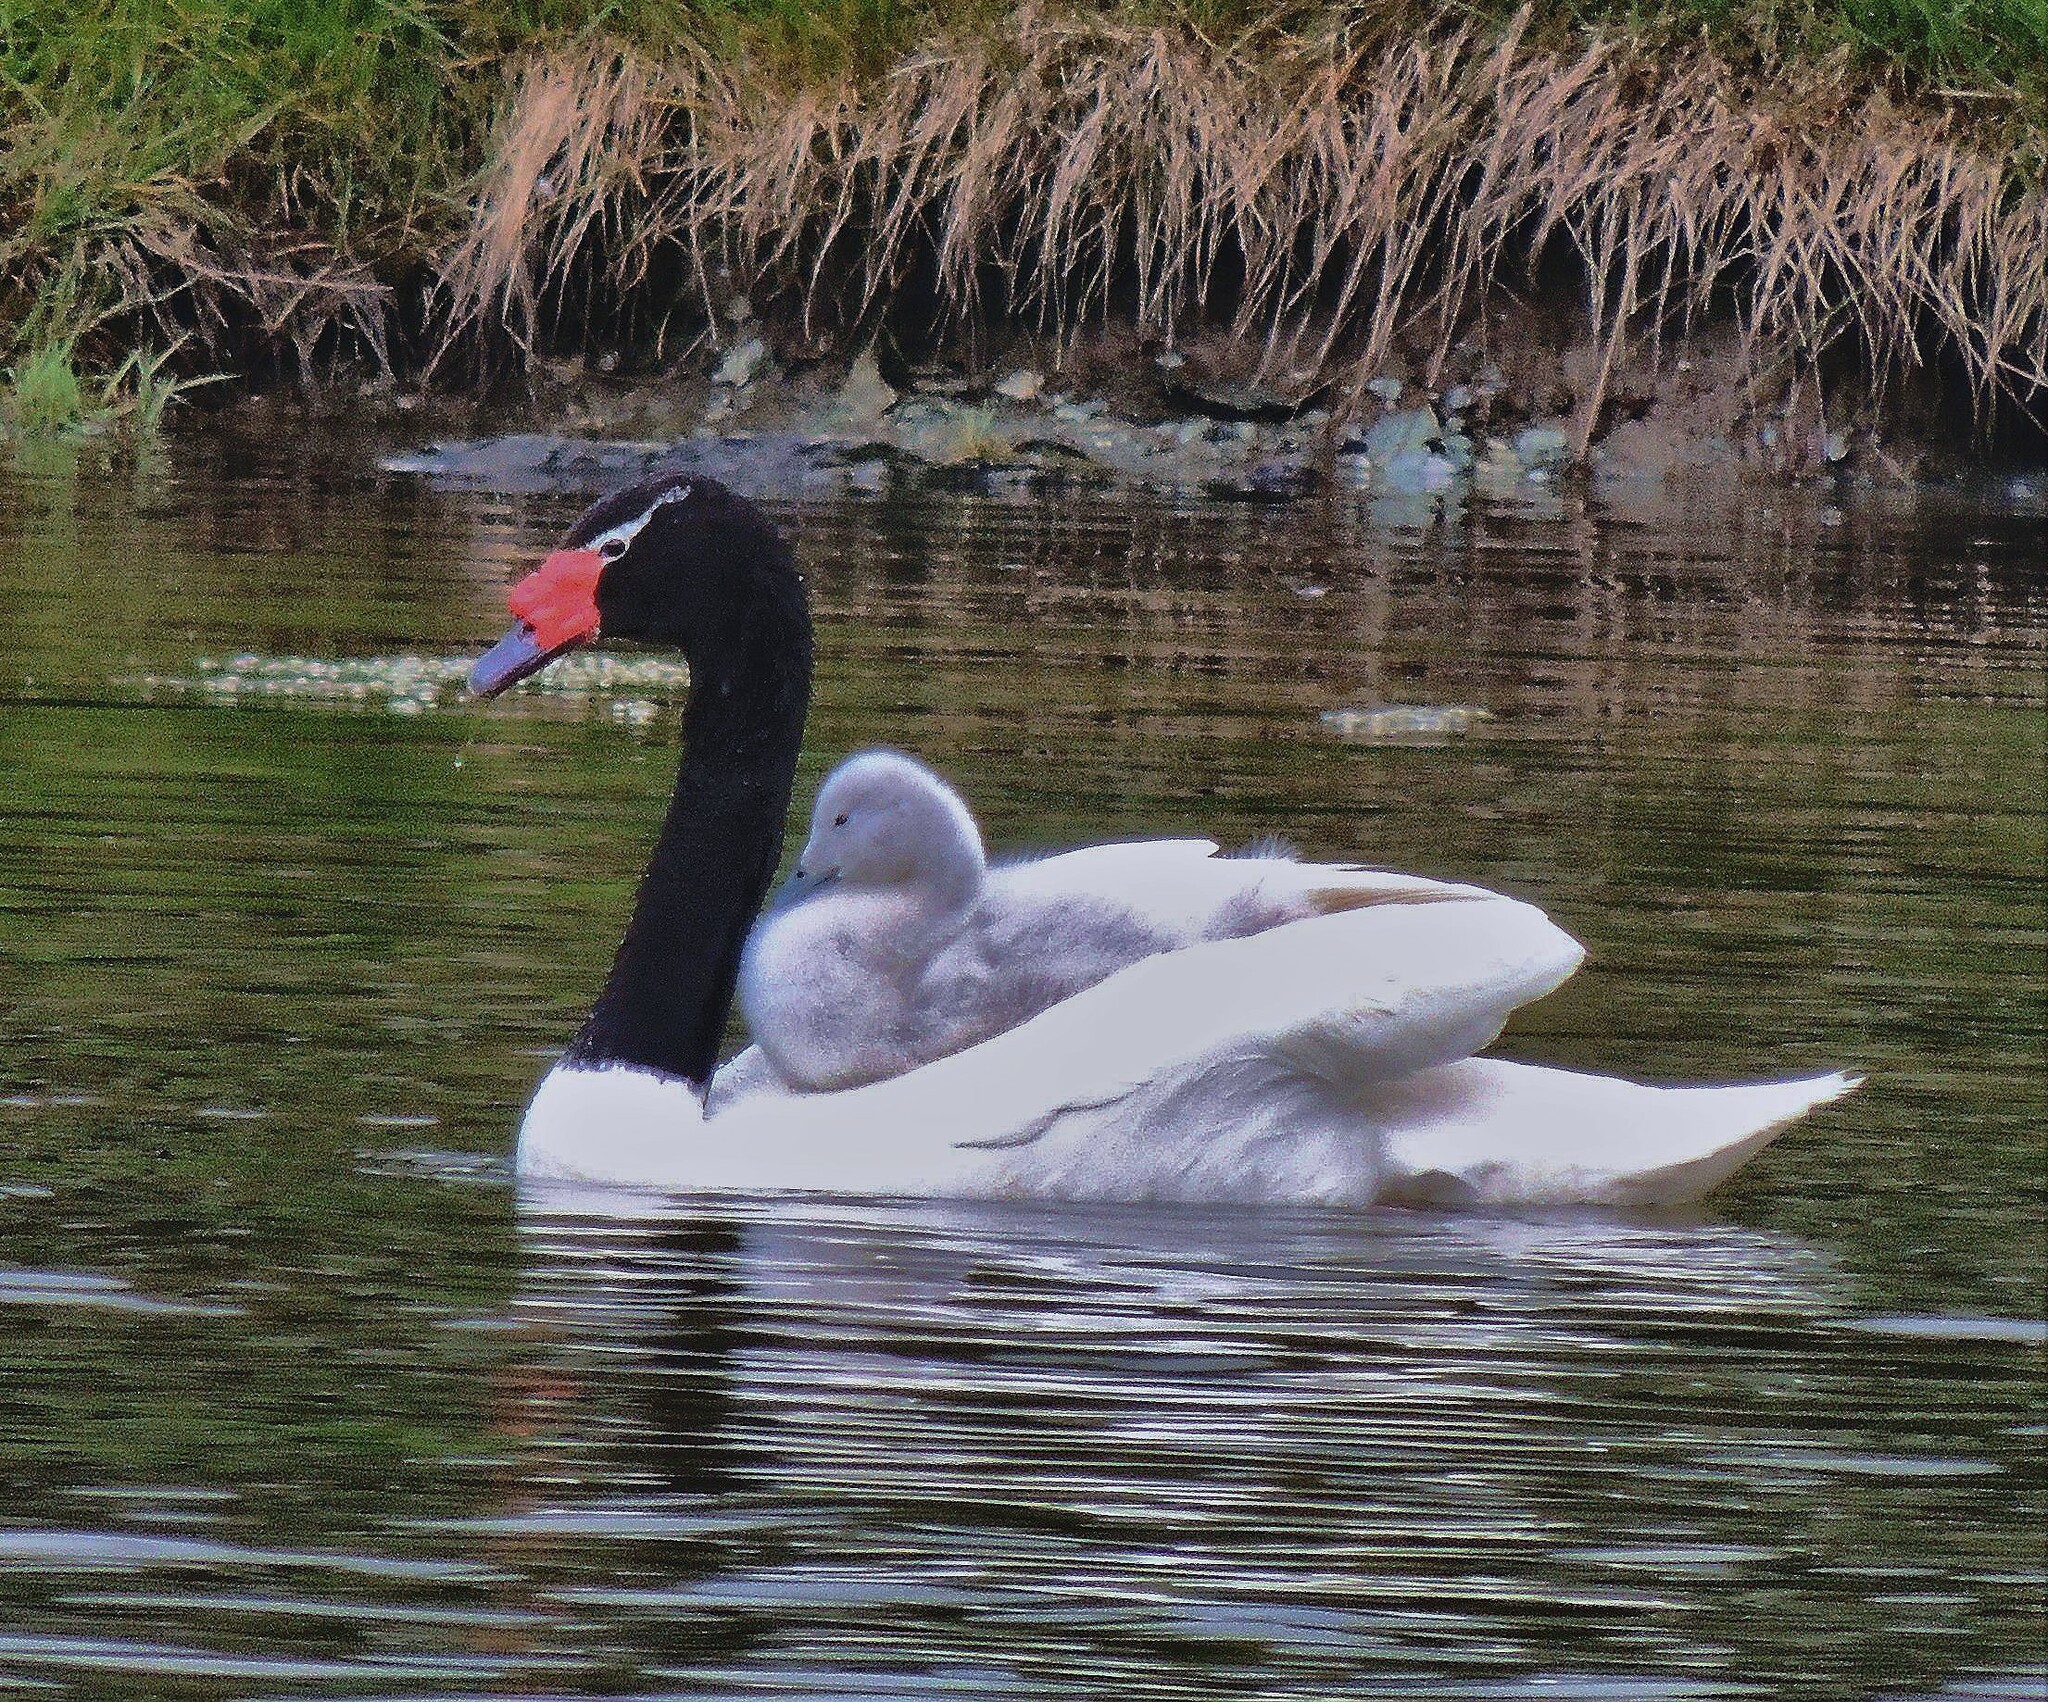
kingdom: Animalia
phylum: Chordata
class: Aves
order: Anseriformes
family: Anatidae
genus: Cygnus
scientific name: Cygnus melancoryphus
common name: Black-necked swan
